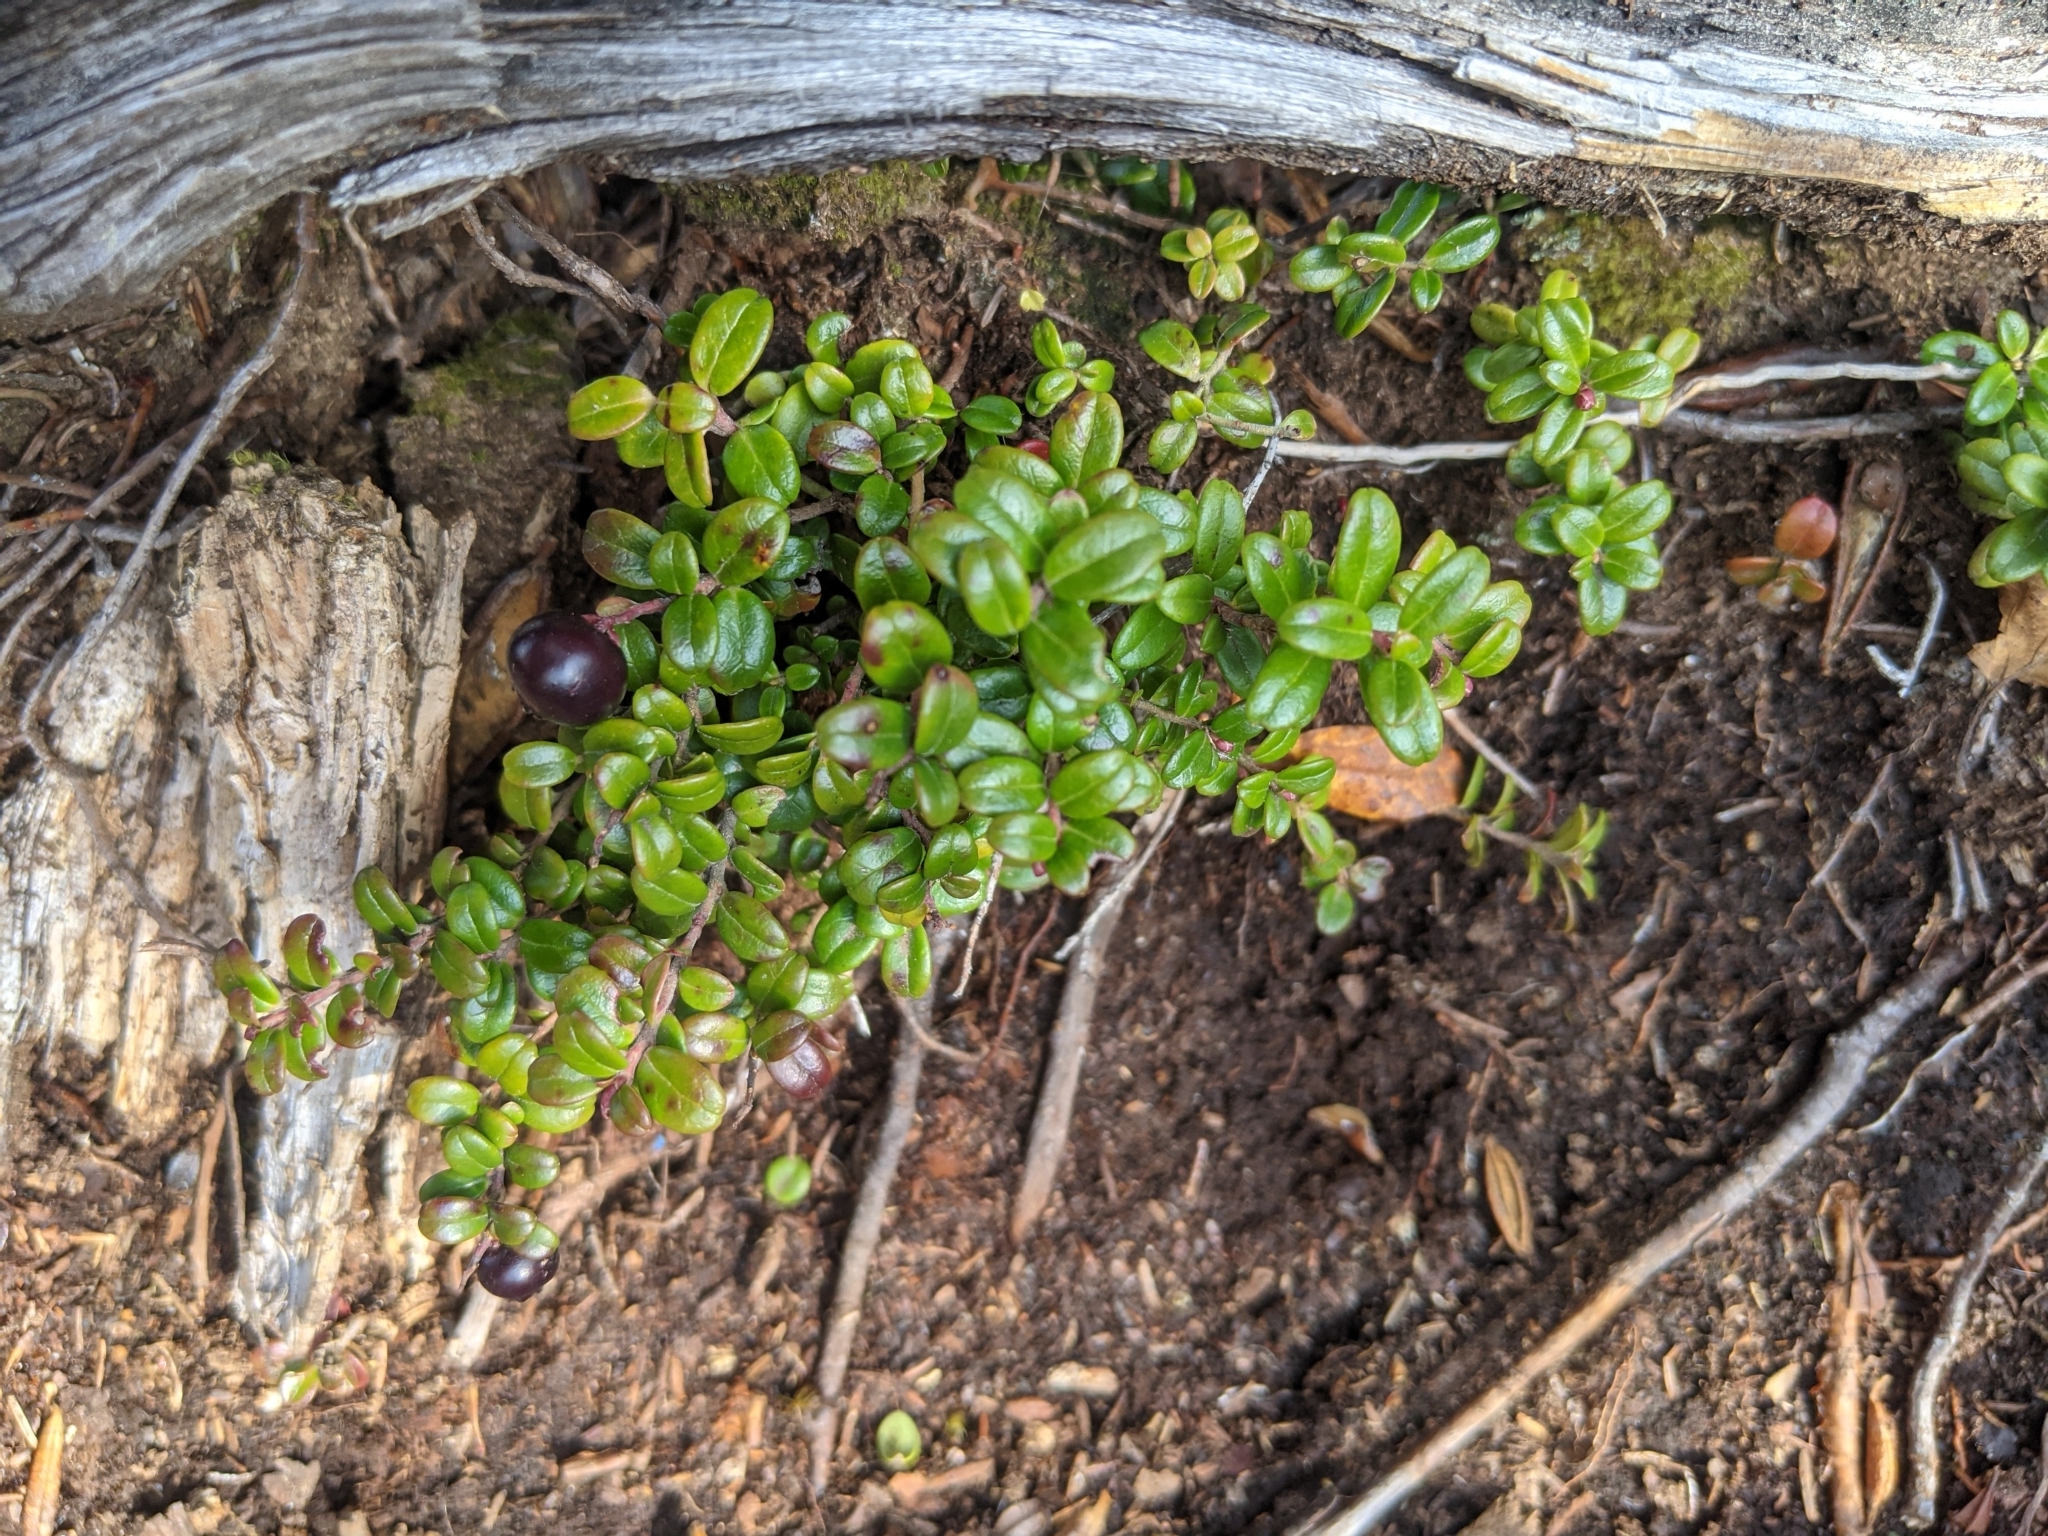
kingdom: Plantae
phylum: Tracheophyta
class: Magnoliopsida
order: Ericales
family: Ericaceae
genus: Vaccinium
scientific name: Vaccinium vitis-idaea
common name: Cowberry
